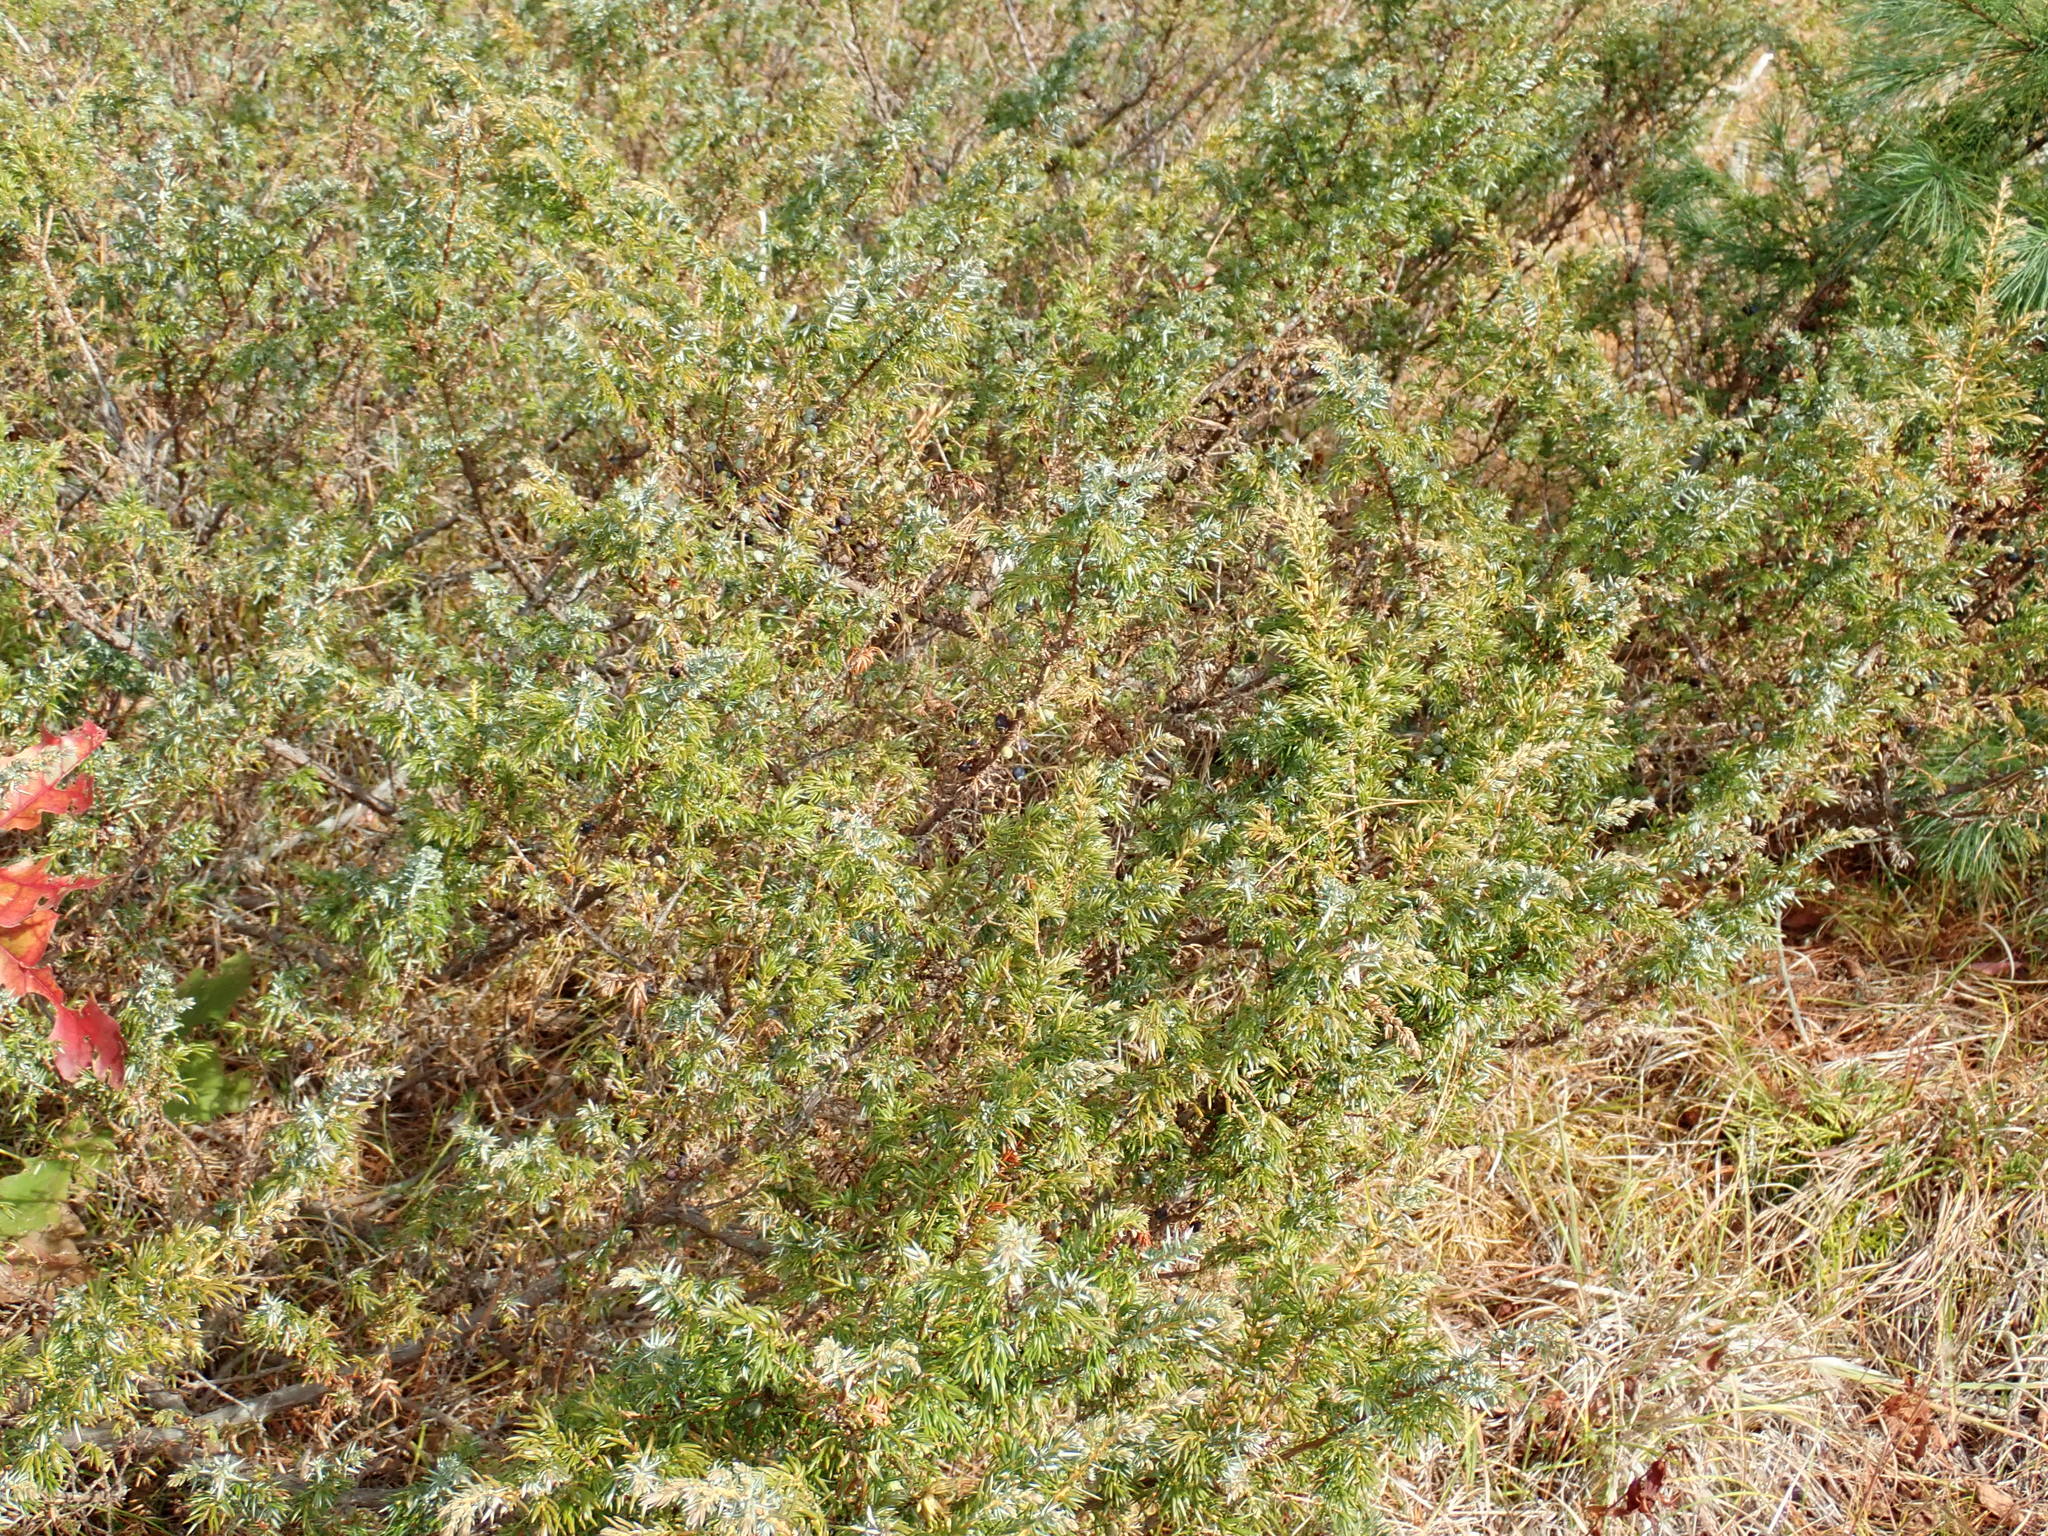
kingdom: Plantae
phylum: Tracheophyta
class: Pinopsida
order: Pinales
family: Cupressaceae
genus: Juniperus
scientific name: Juniperus communis
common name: Common juniper
